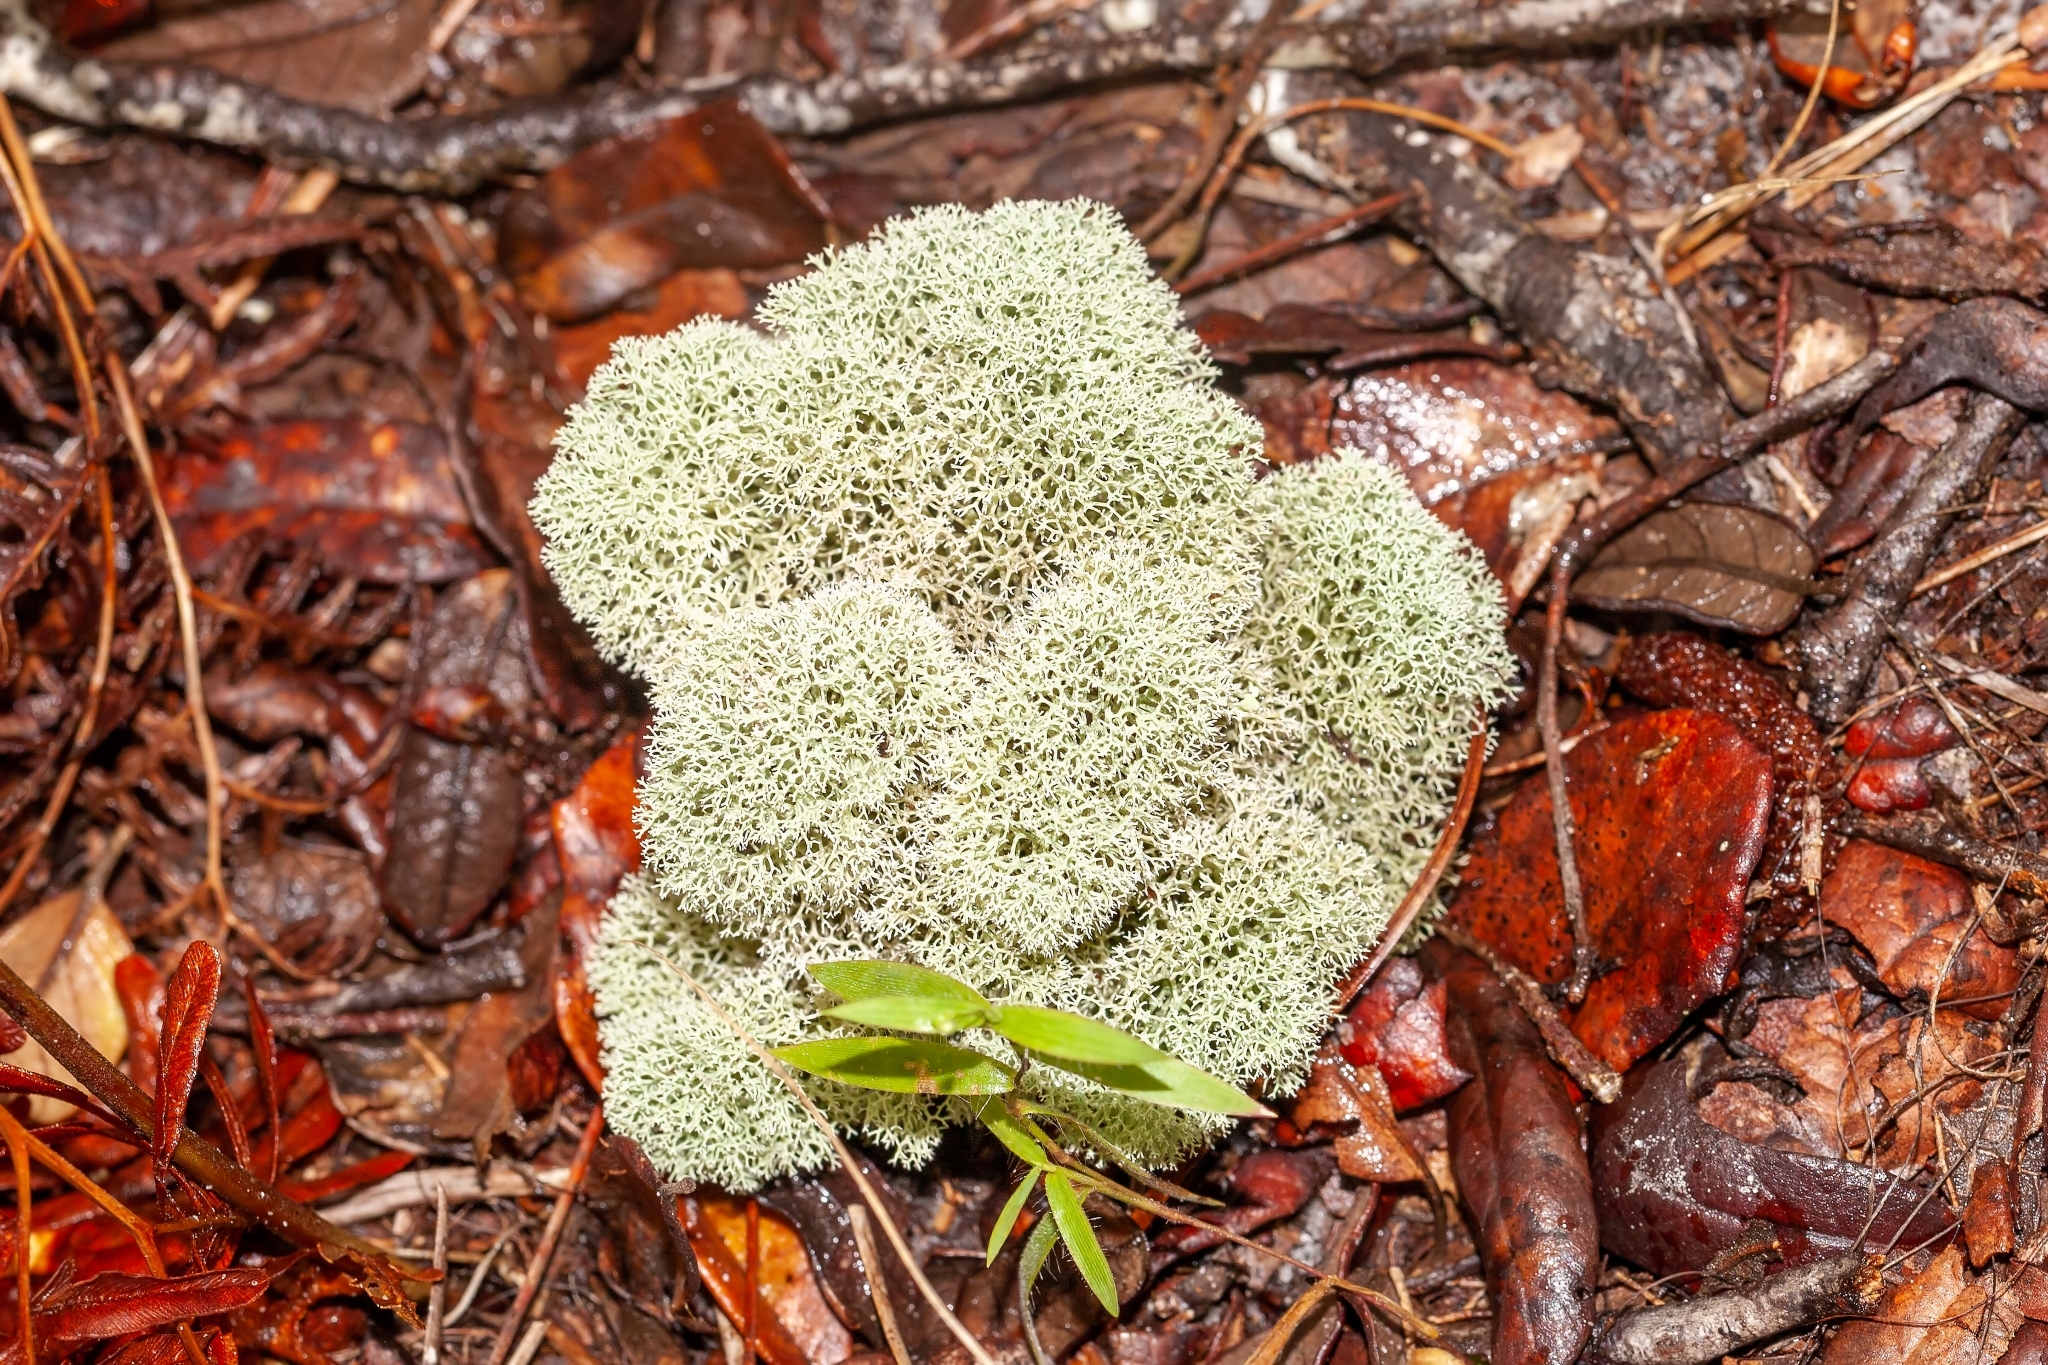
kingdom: Fungi
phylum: Ascomycota
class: Lecanoromycetes
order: Lecanorales
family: Cladoniaceae
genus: Cladonia
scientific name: Cladonia evansii
